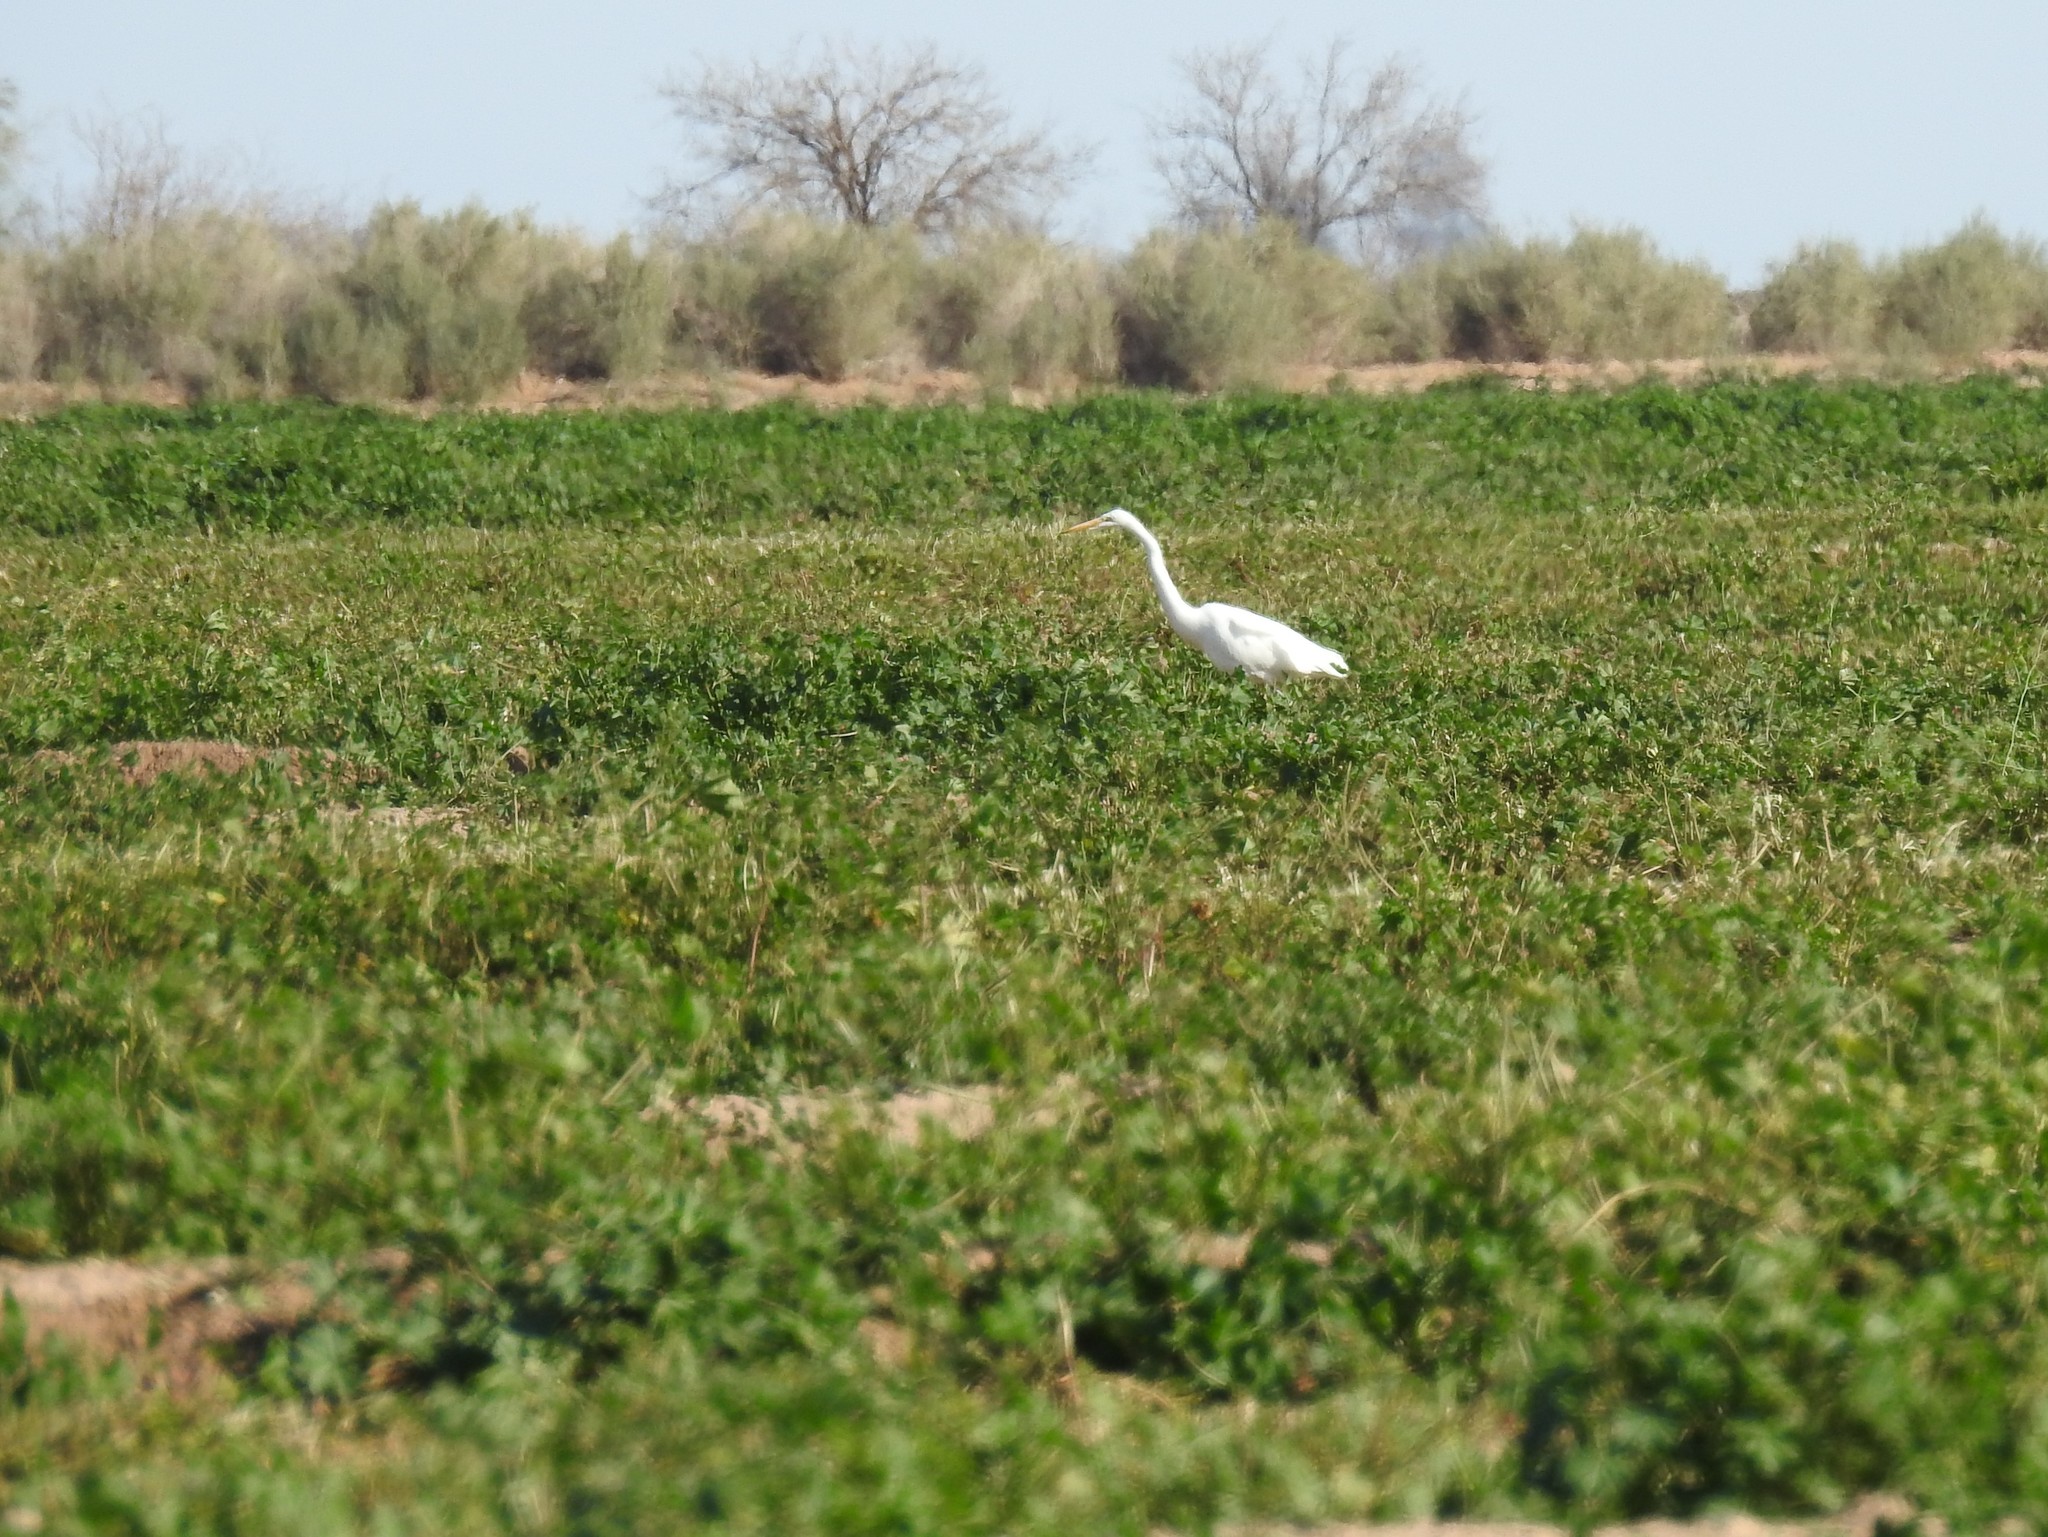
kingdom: Animalia
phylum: Chordata
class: Aves
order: Pelecaniformes
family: Ardeidae
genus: Ardea
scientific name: Ardea alba
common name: Great egret
